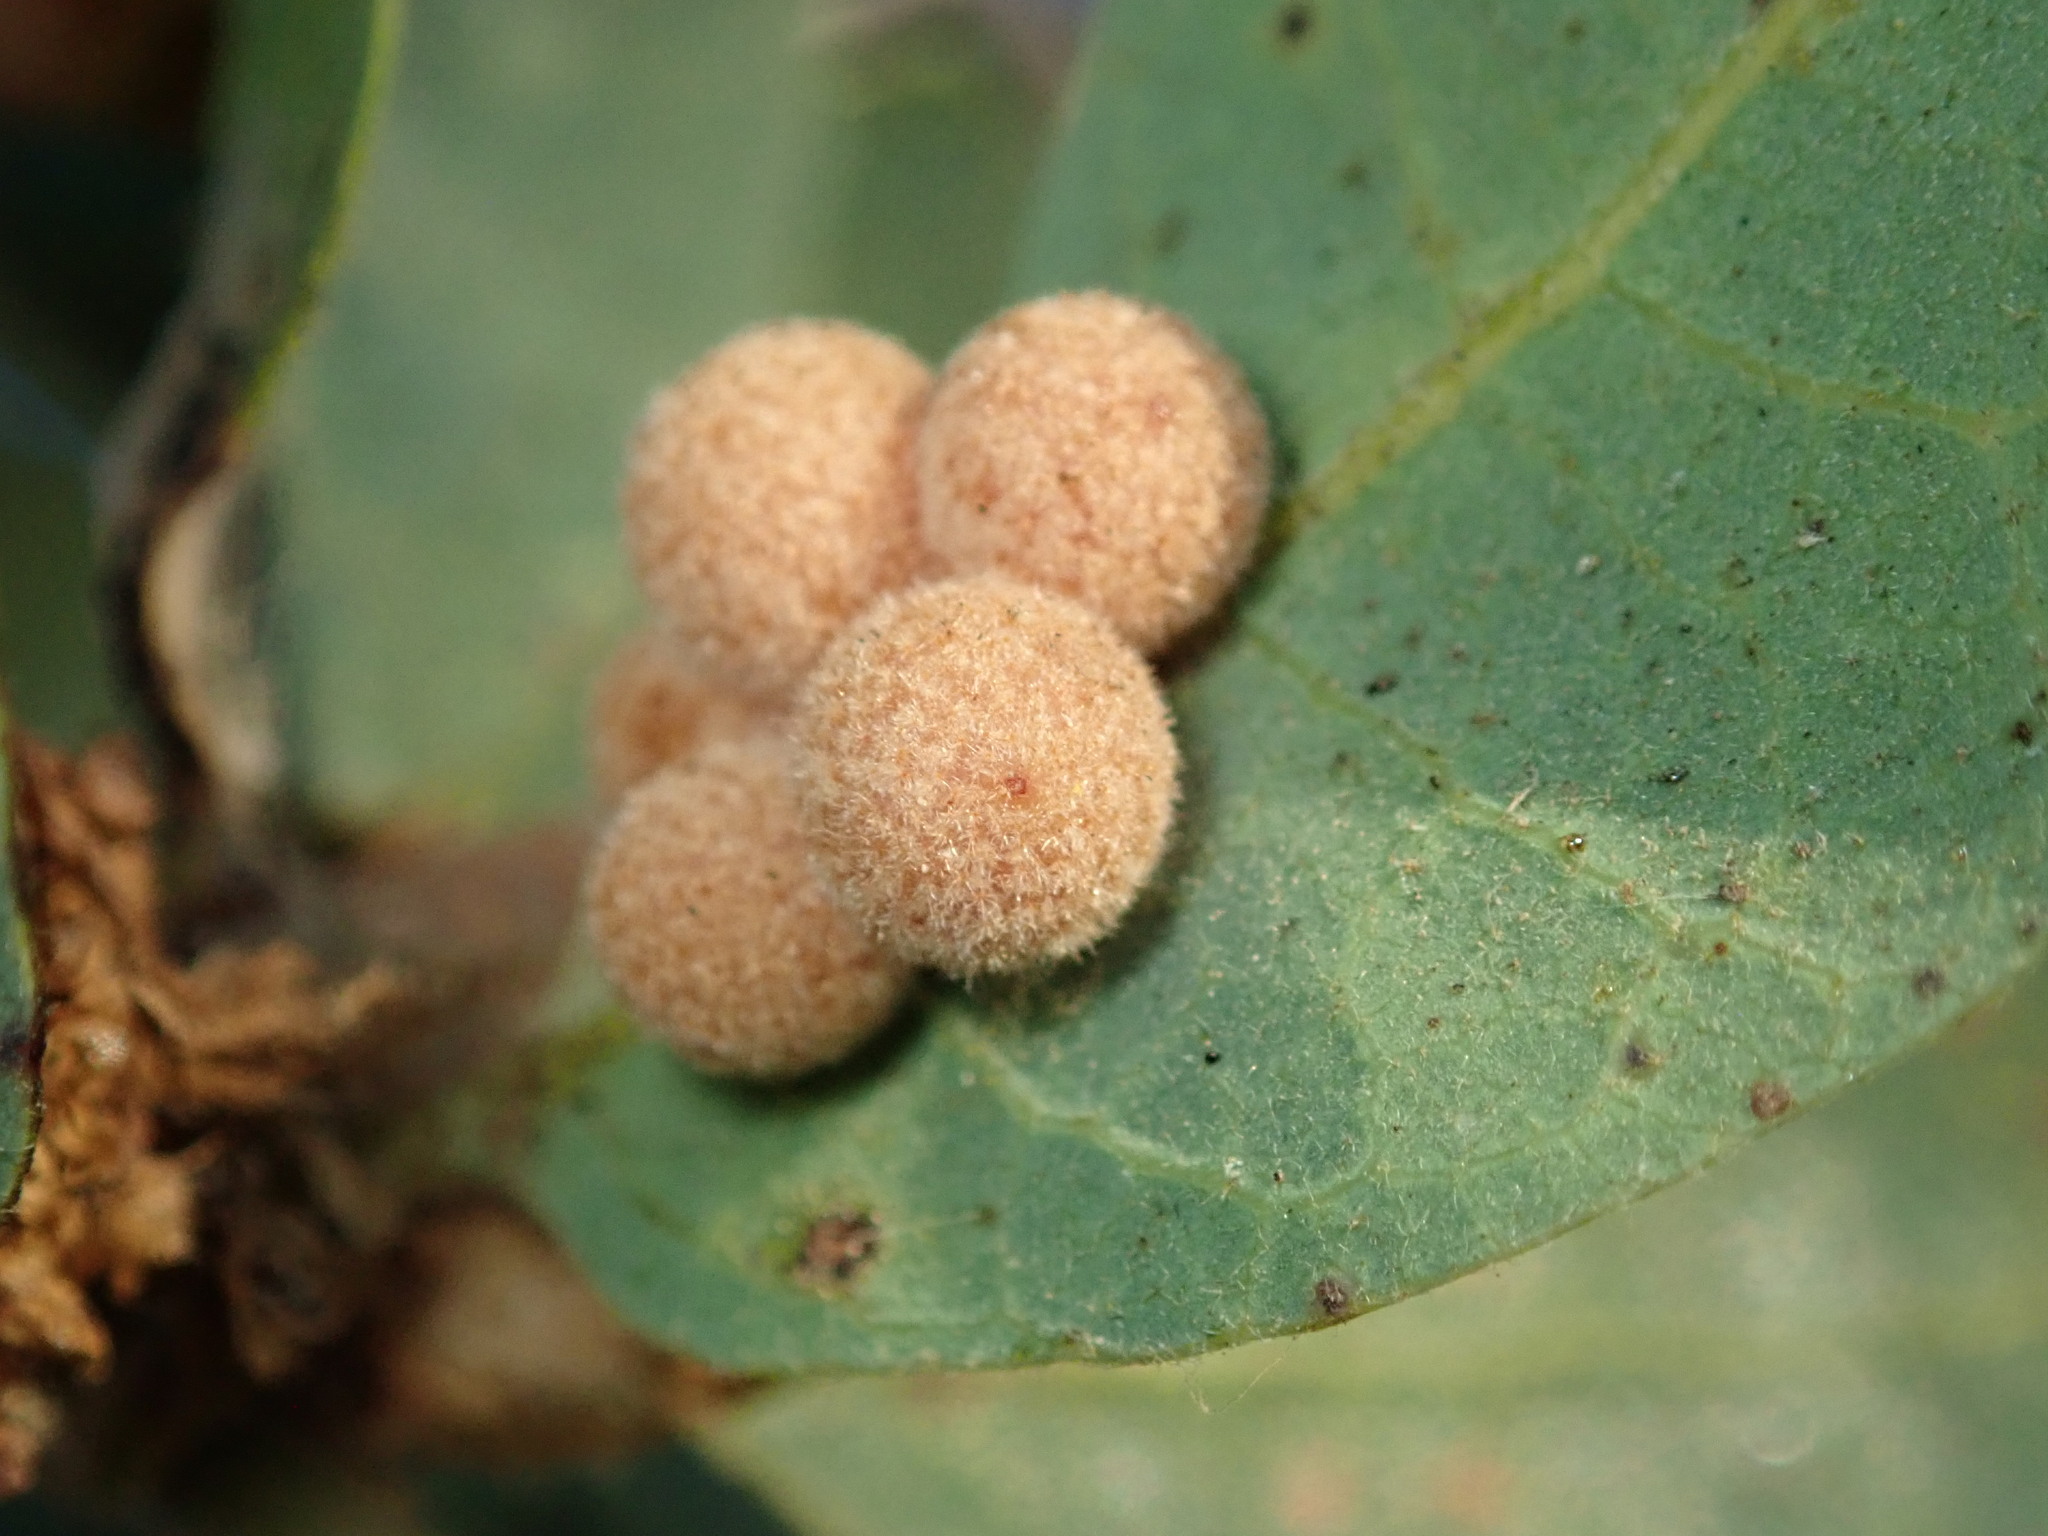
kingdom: Animalia
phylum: Arthropoda
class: Insecta
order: Hymenoptera
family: Cynipidae
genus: Andricus
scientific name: Andricus
